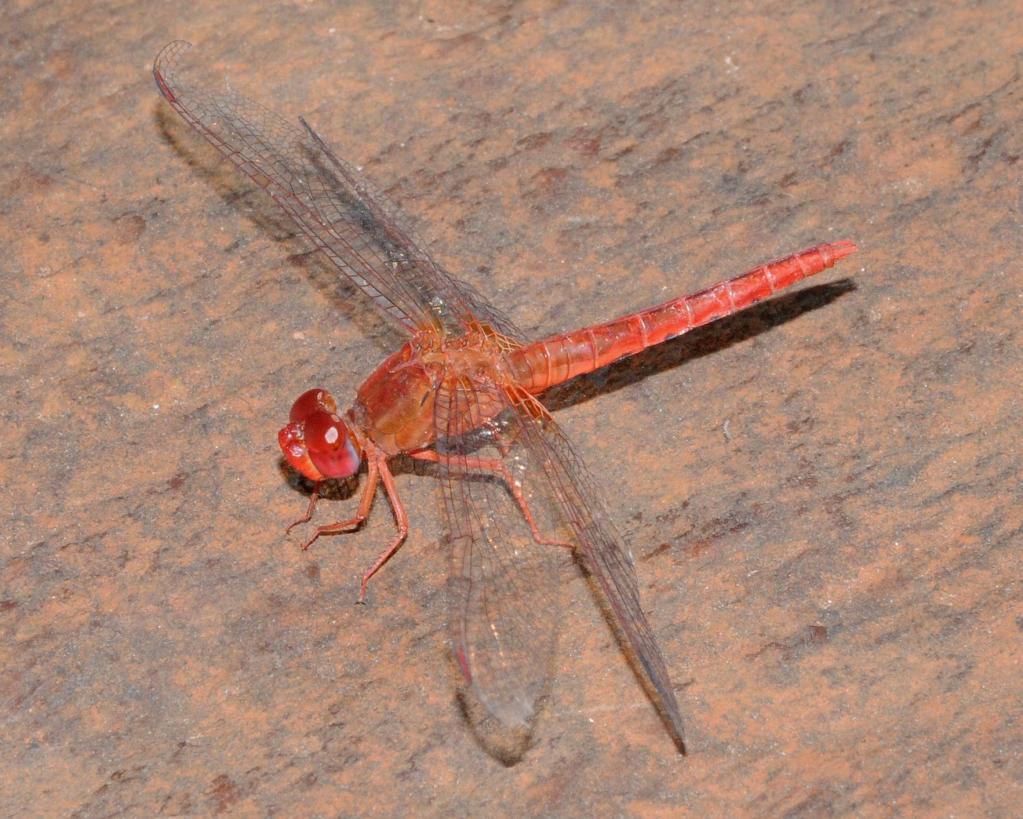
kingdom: Animalia
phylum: Arthropoda
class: Insecta
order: Odonata
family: Libellulidae
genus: Crocothemis
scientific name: Crocothemis sanguinolenta
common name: Little scarlet
